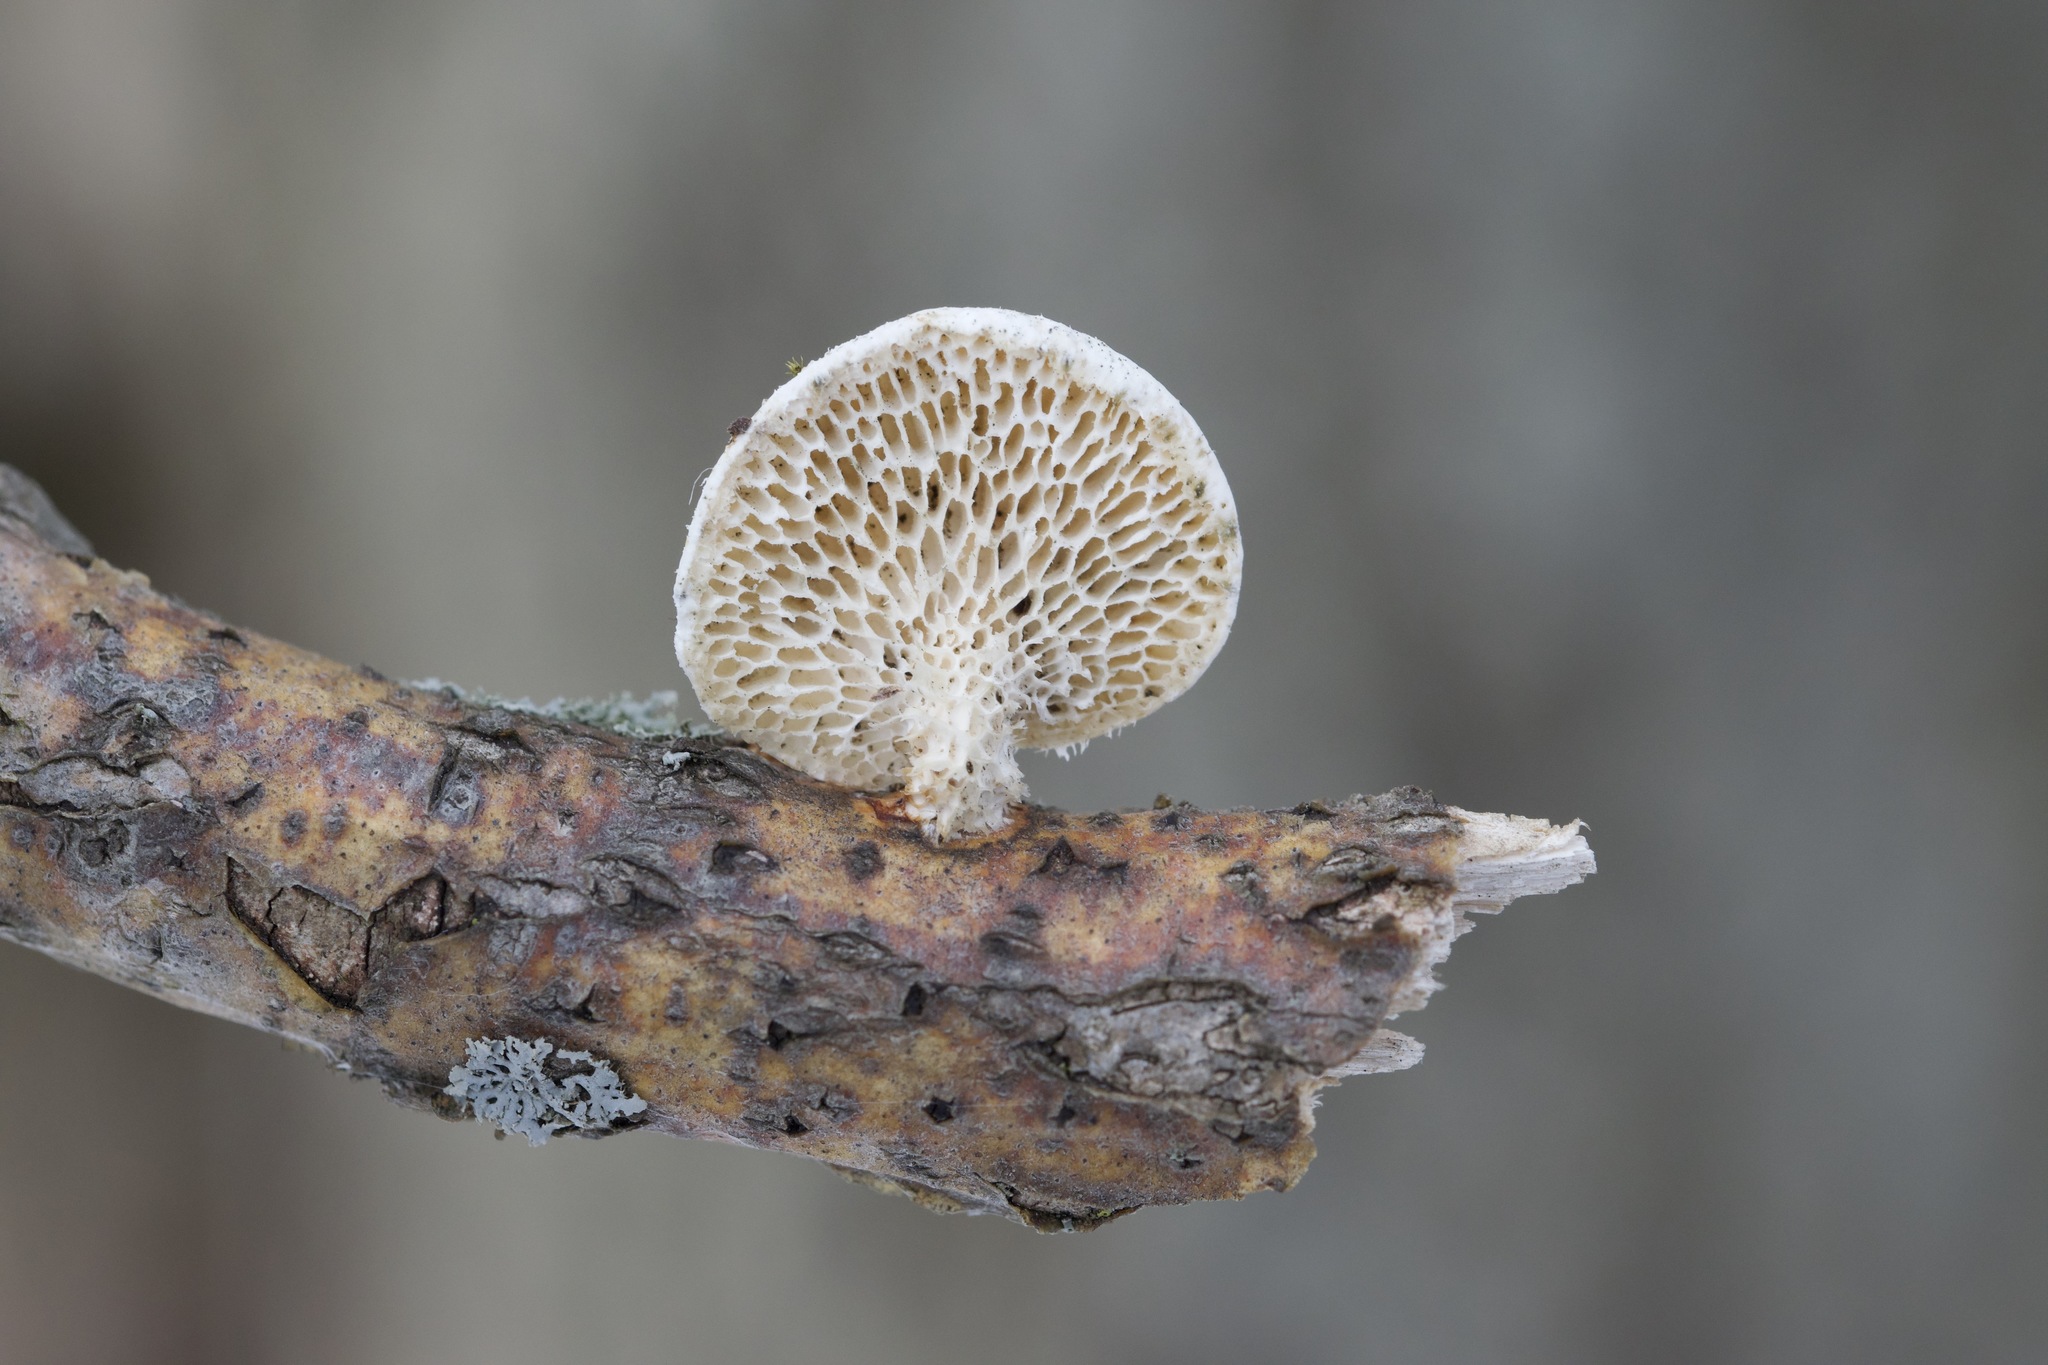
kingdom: Fungi
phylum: Basidiomycota
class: Agaricomycetes
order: Polyporales
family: Polyporaceae
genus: Neofavolus
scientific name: Neofavolus alveolaris
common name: Hexagonal-pored polypore
